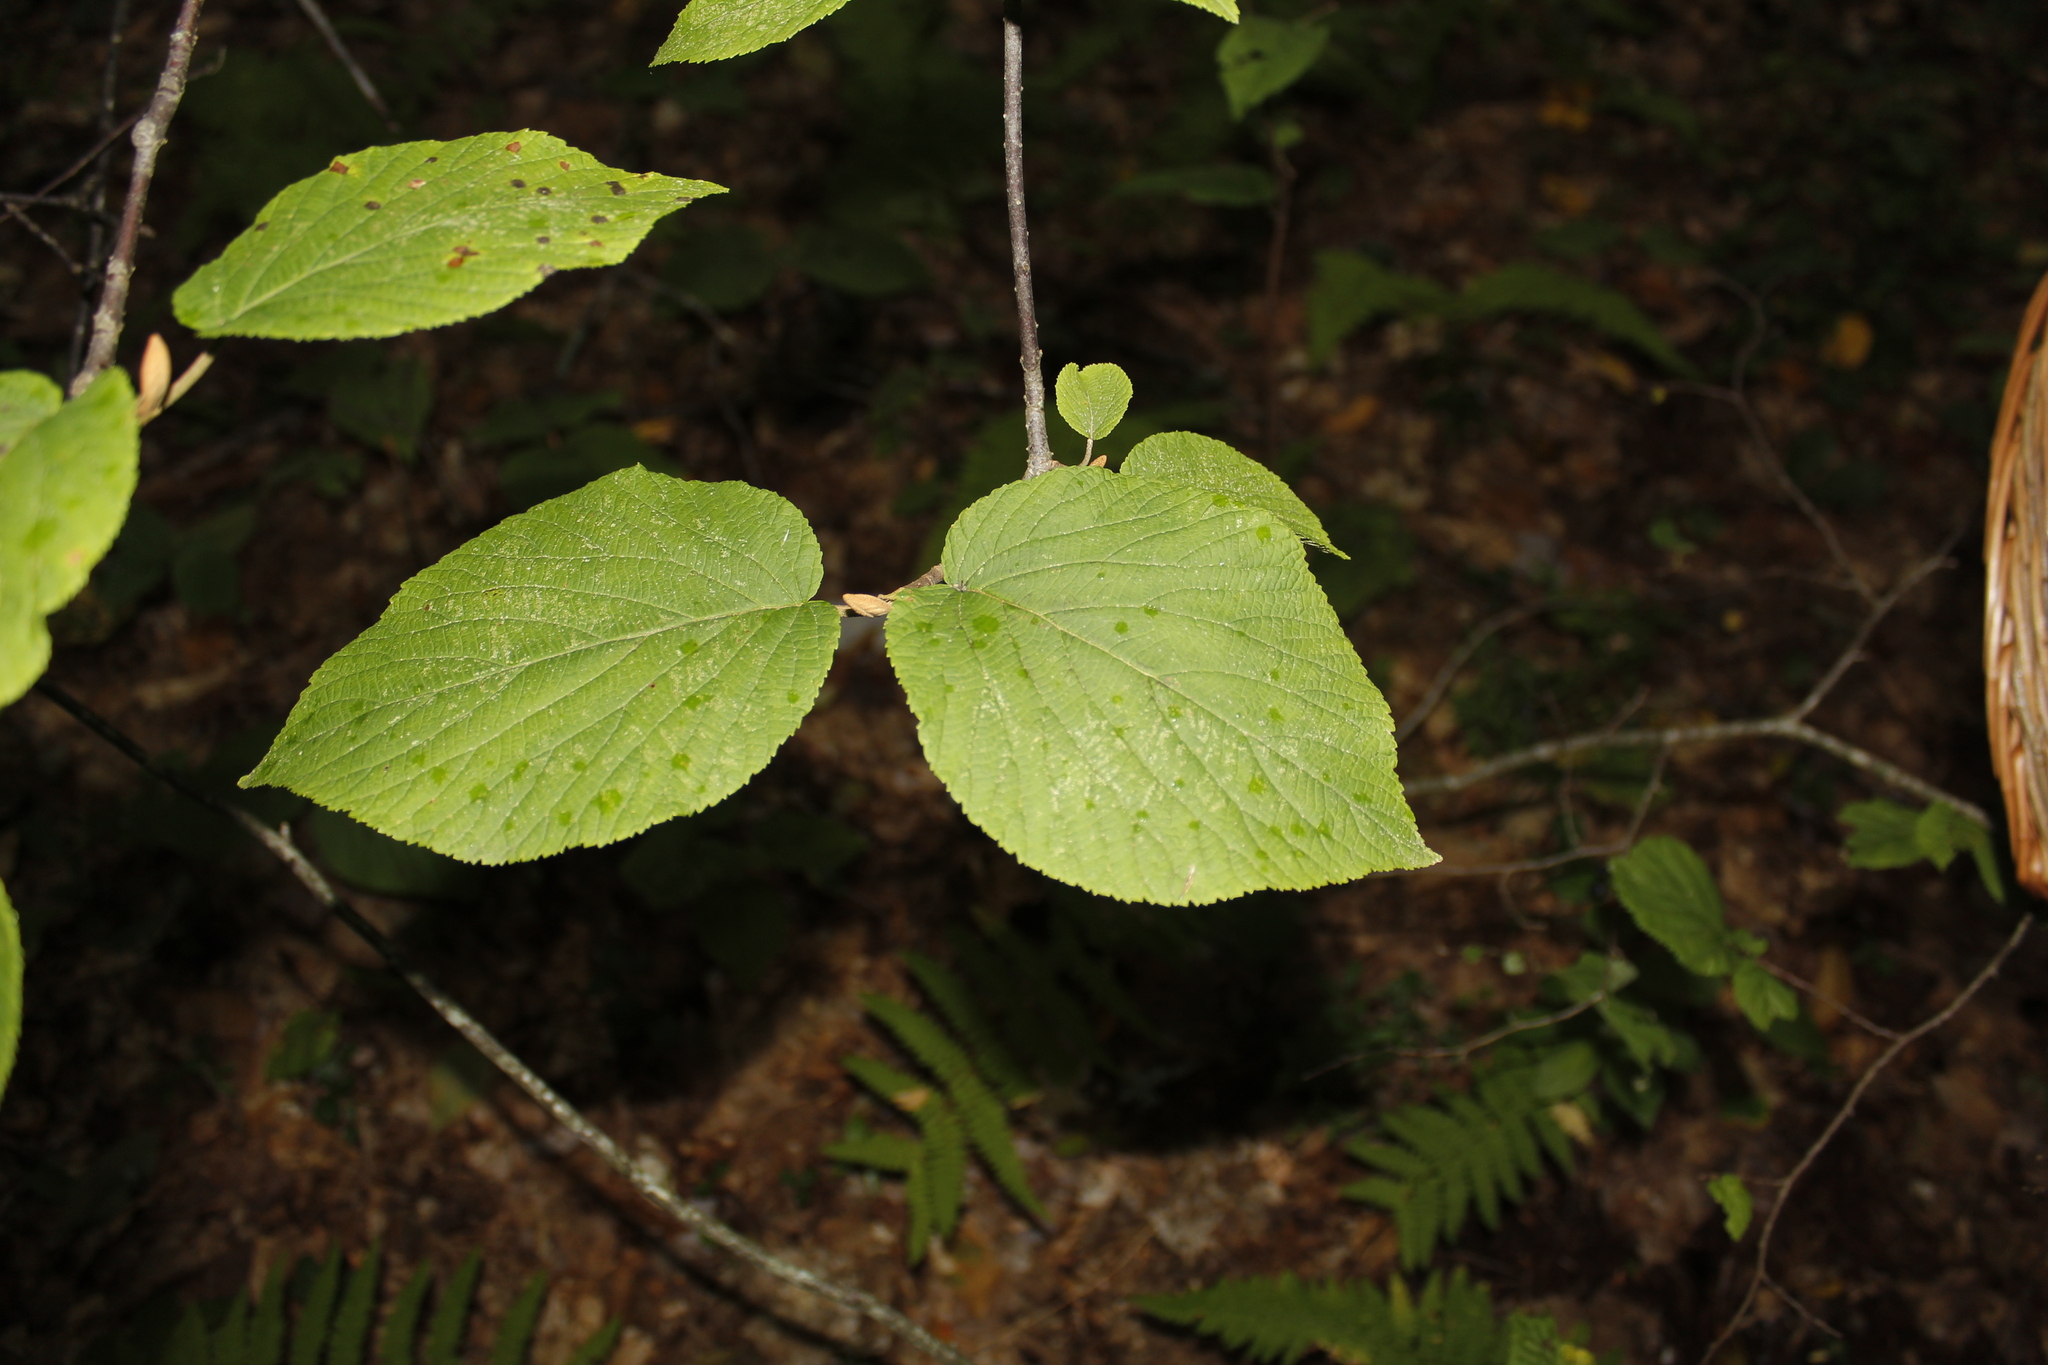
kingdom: Plantae
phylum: Tracheophyta
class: Magnoliopsida
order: Dipsacales
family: Viburnaceae
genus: Viburnum
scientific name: Viburnum lantanoides
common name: Hobblebush
